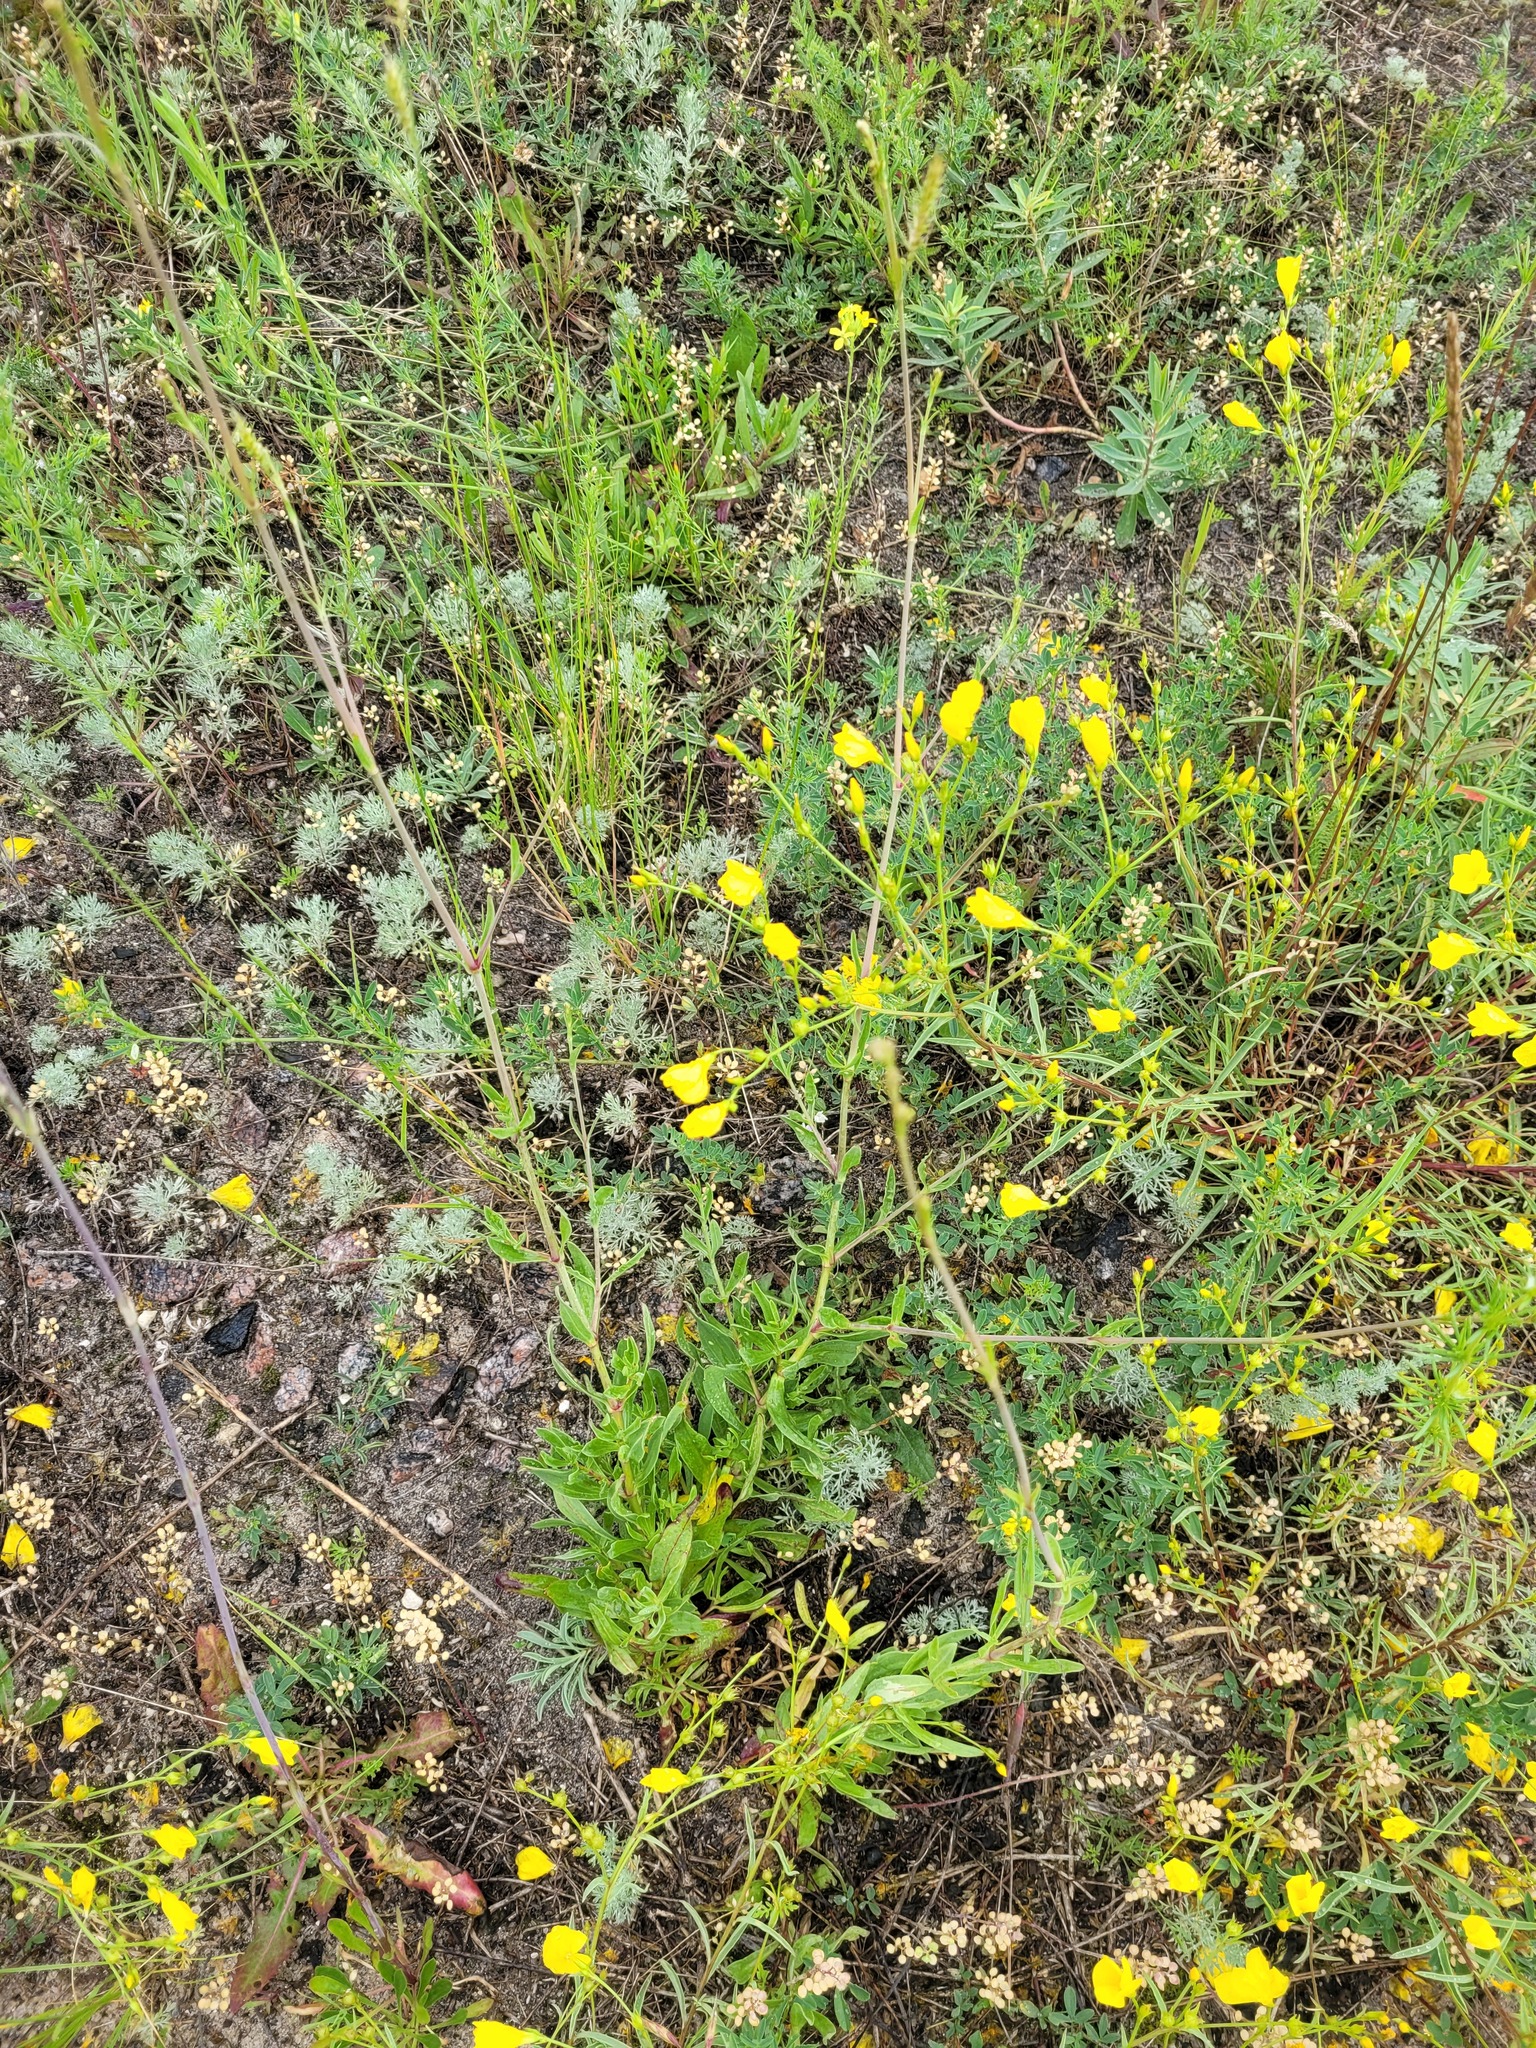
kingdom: Plantae
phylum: Tracheophyta
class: Magnoliopsida
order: Caryophyllales
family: Caryophyllaceae
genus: Gypsophila
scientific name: Gypsophila altissima
